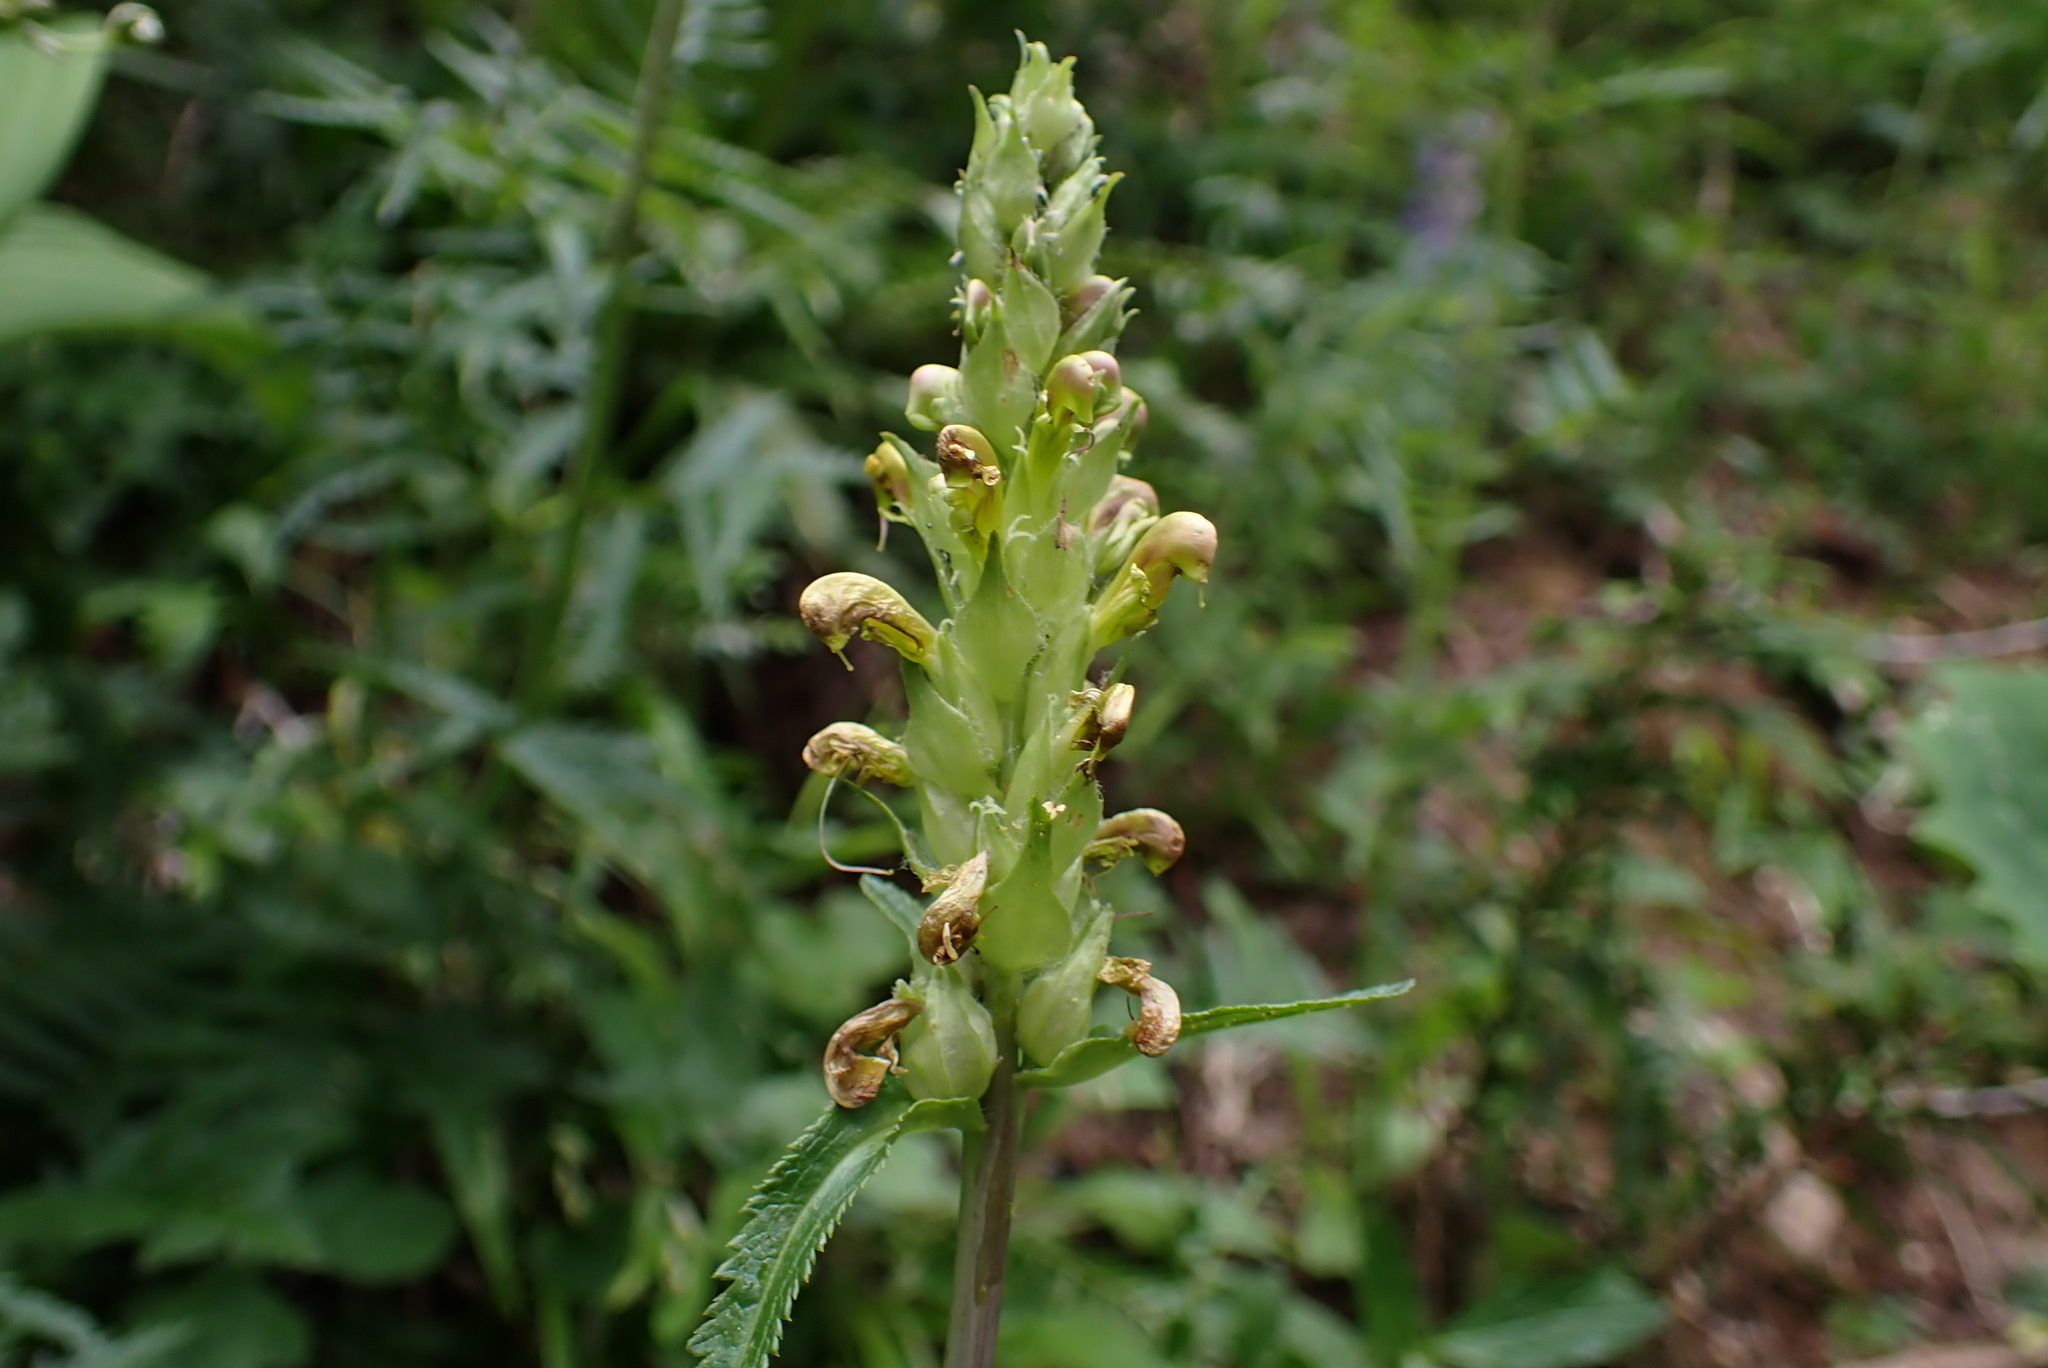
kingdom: Plantae
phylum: Tracheophyta
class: Magnoliopsida
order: Lamiales
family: Orobanchaceae
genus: Pedicularis
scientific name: Pedicularis bracteosa
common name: Bracted lousewort
